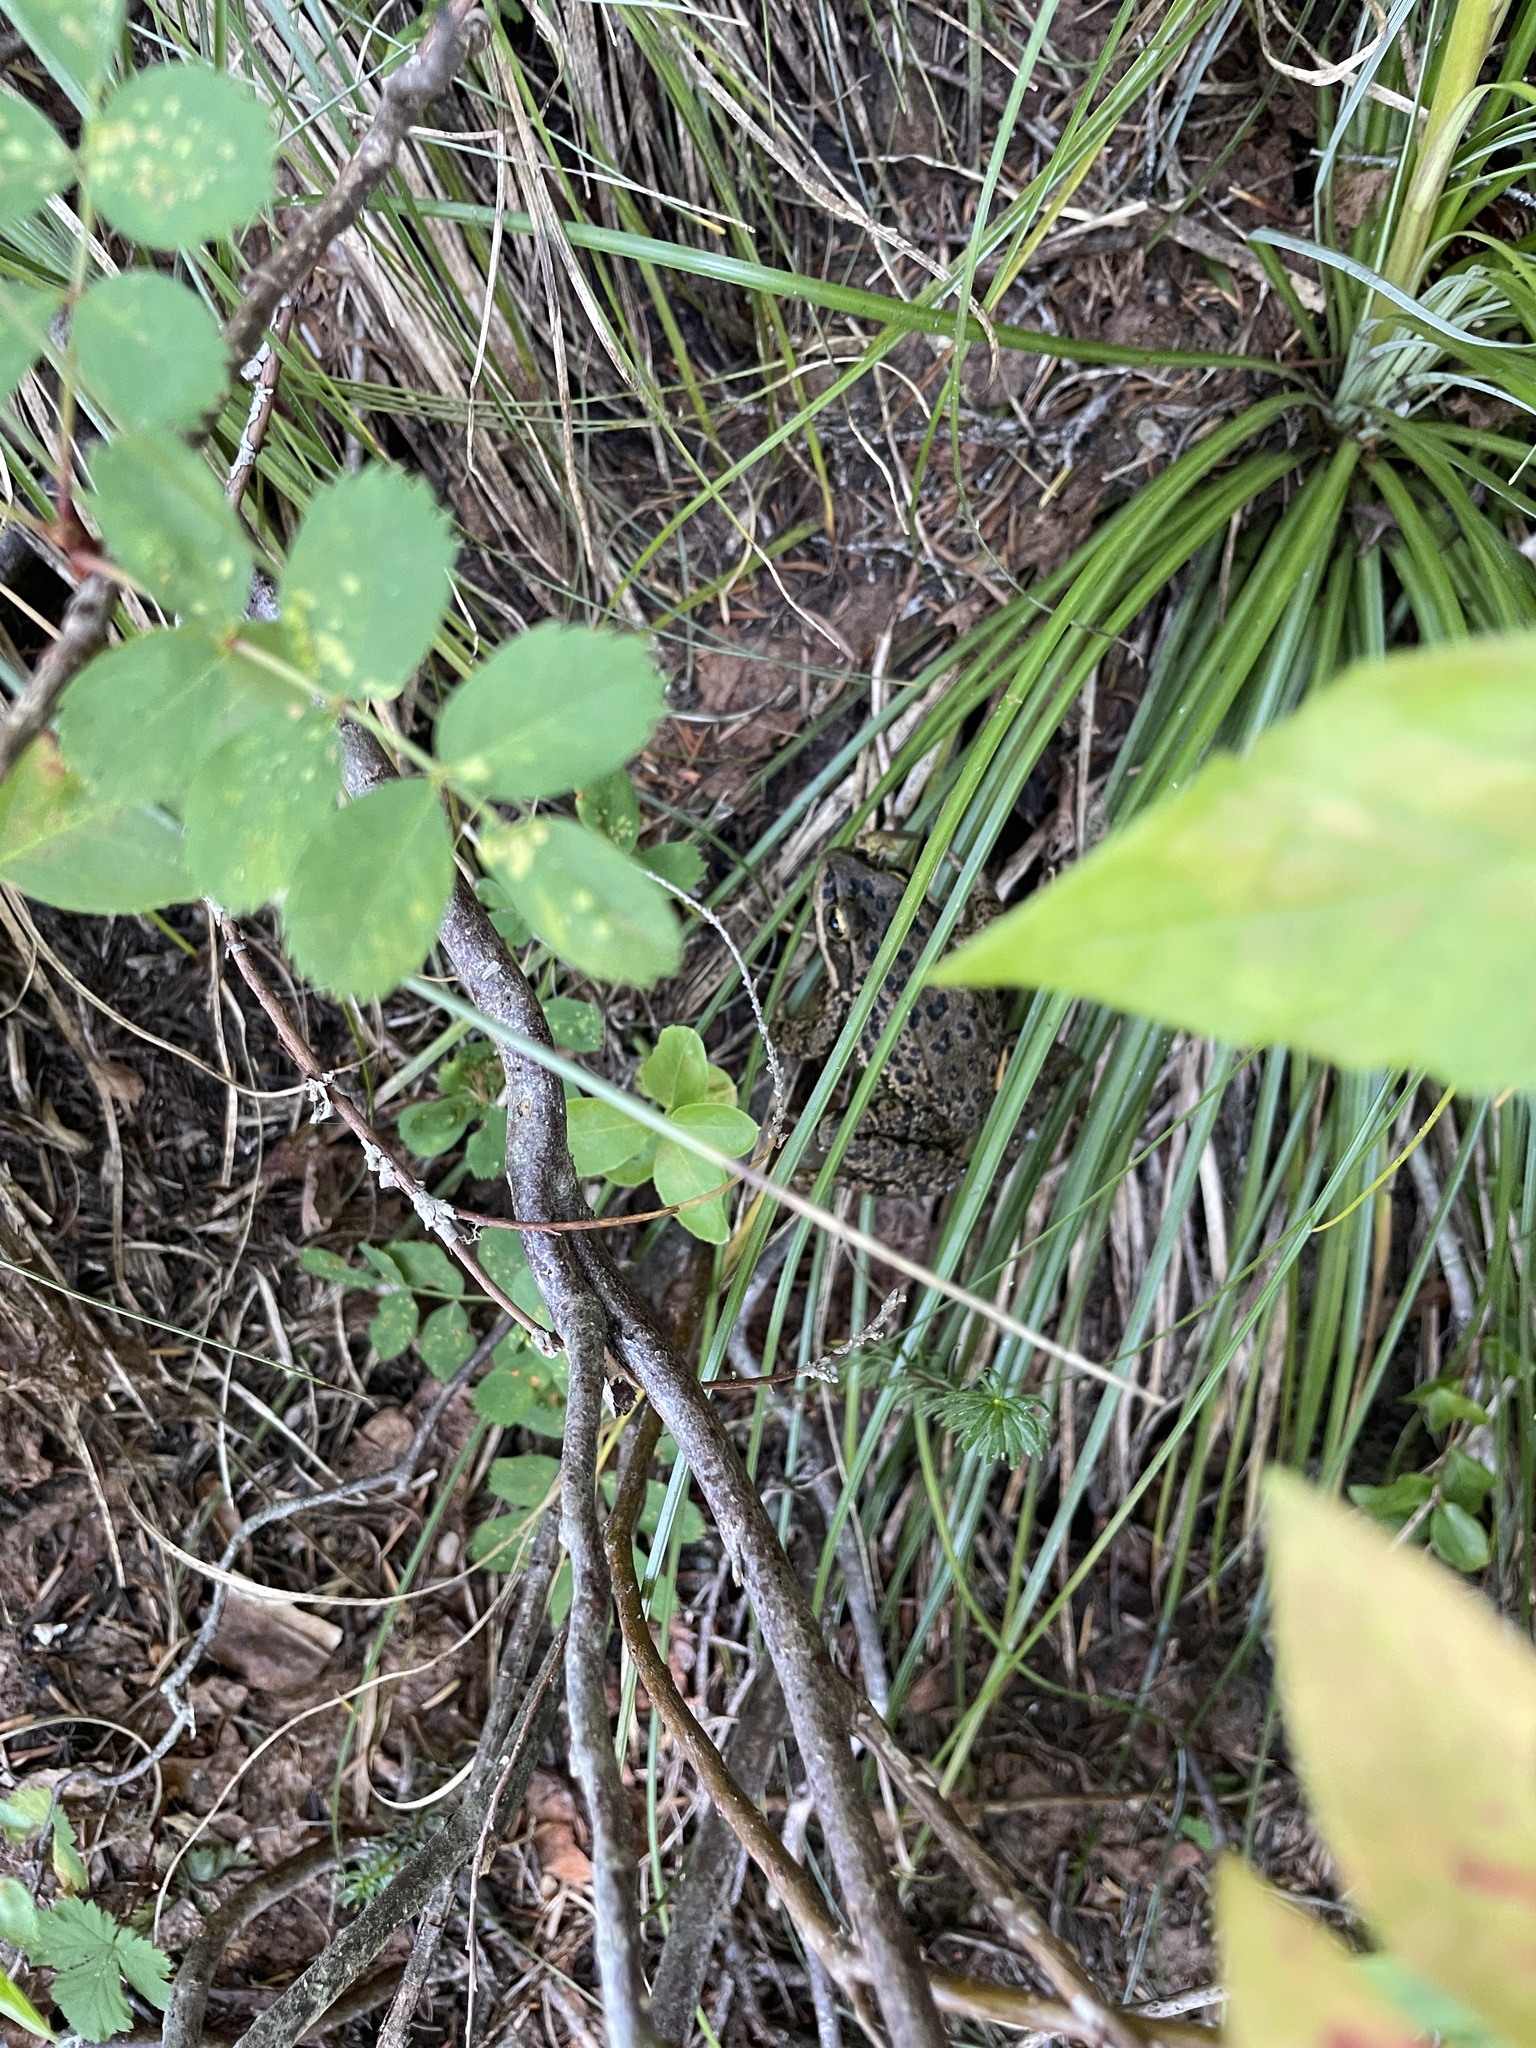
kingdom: Animalia
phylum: Chordata
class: Amphibia
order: Anura
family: Ranidae
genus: Rana
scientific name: Rana cascadae
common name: Cascades frog
